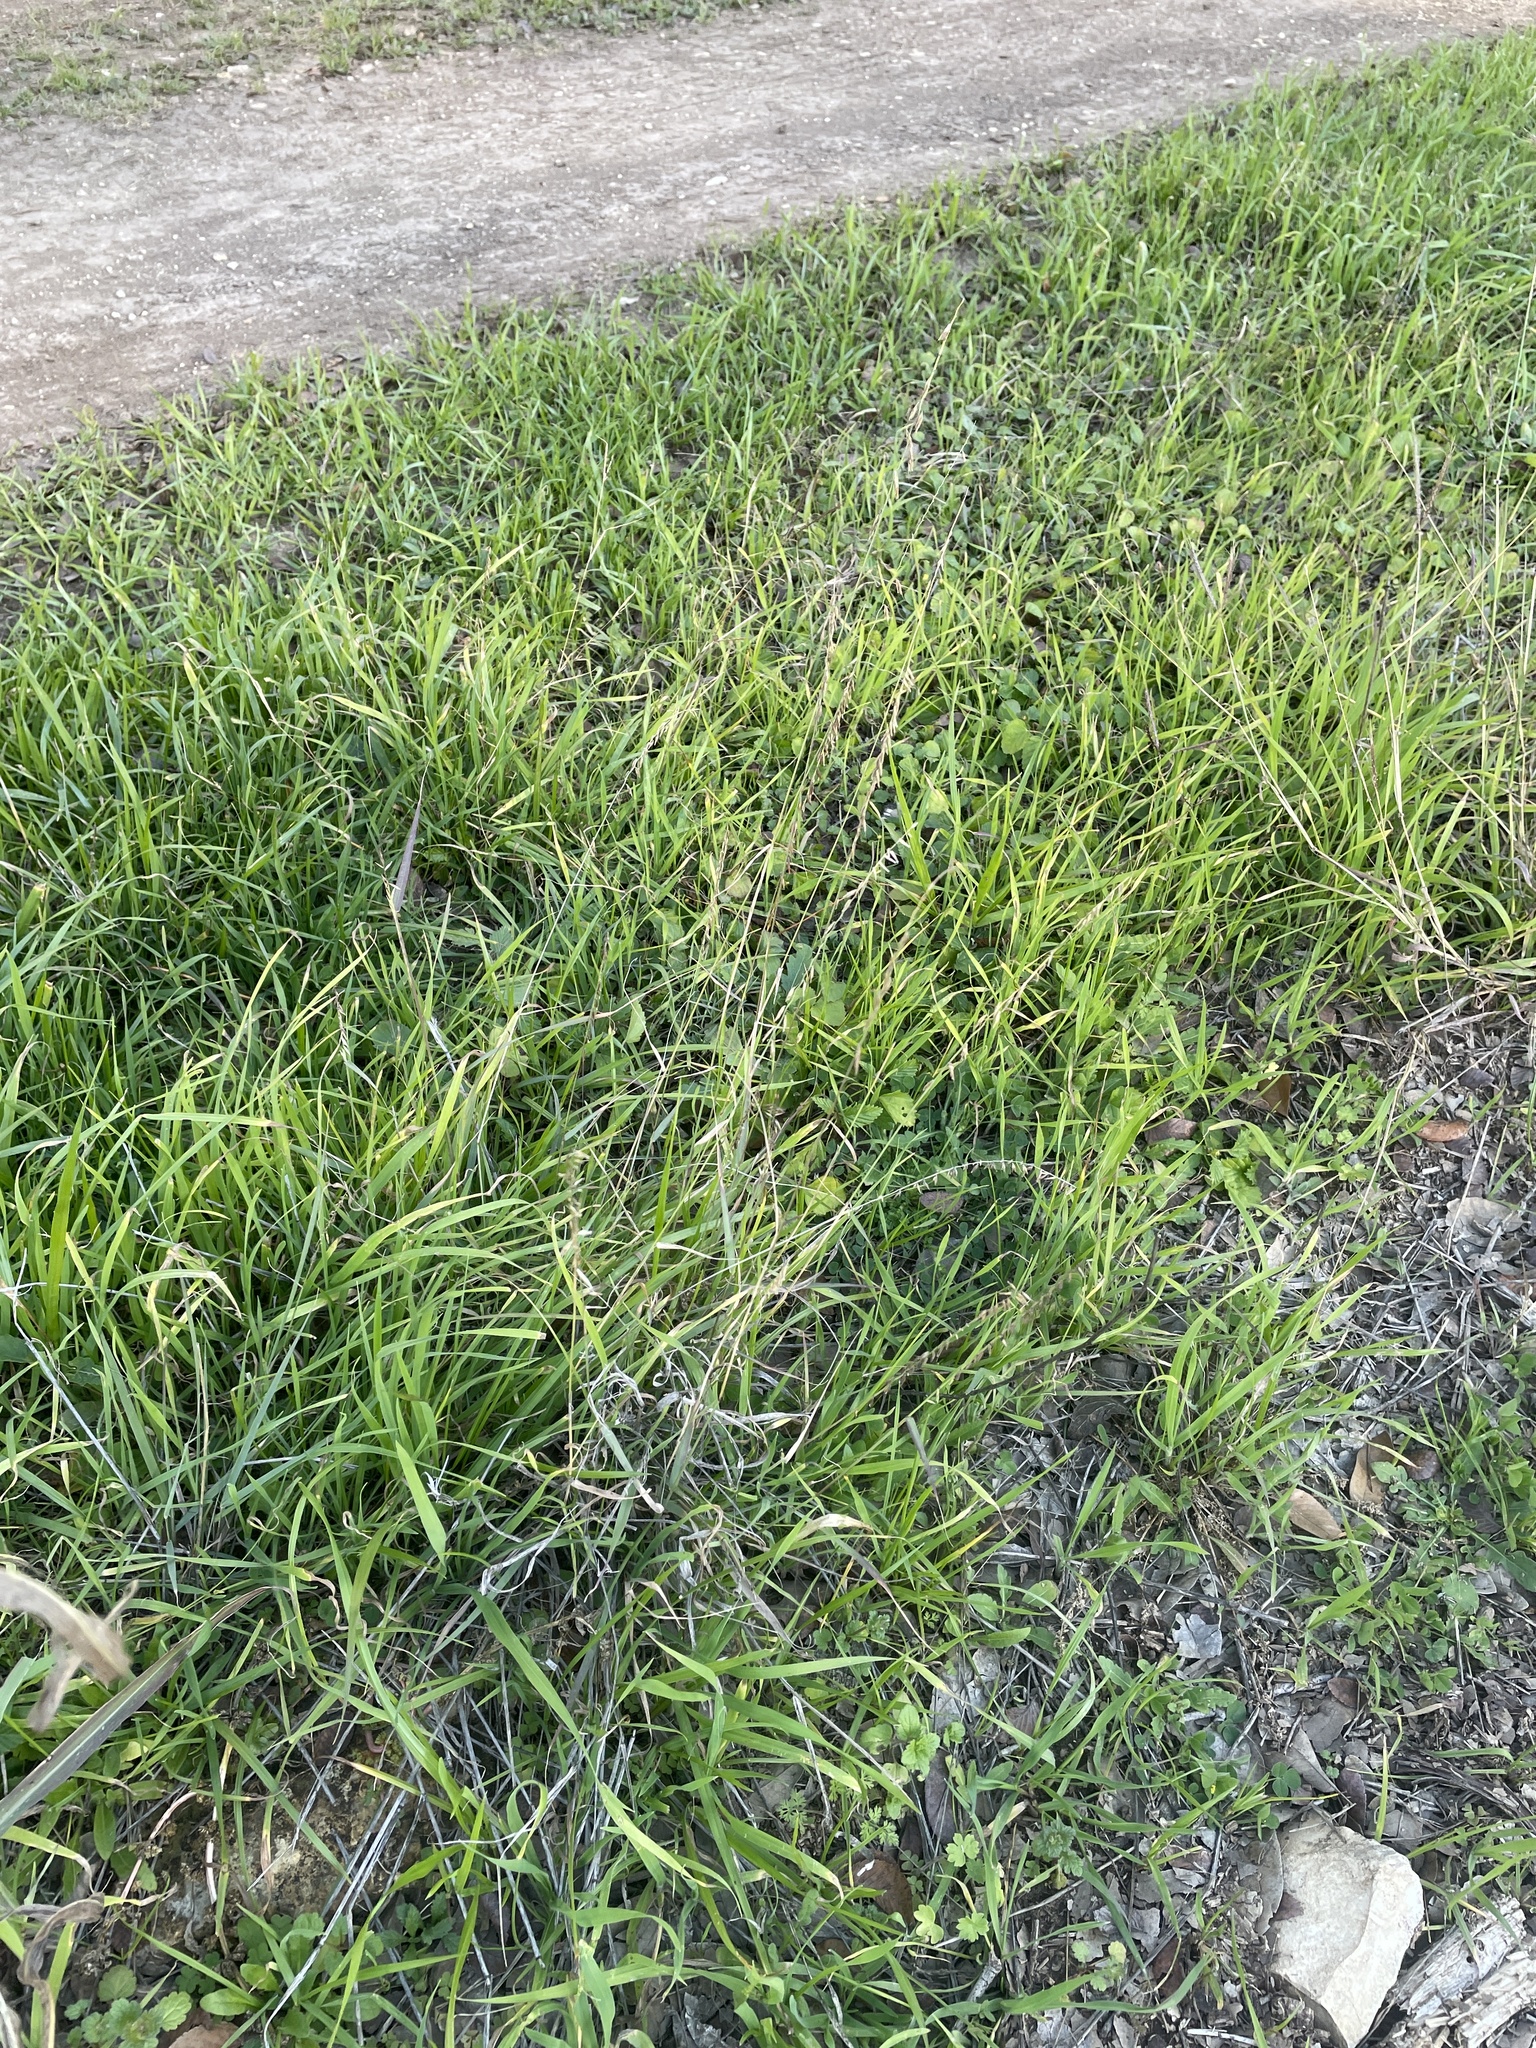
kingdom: Plantae
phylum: Tracheophyta
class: Liliopsida
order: Poales
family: Poaceae
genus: Bouteloua
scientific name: Bouteloua curtipendula
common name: Side-oats grama
